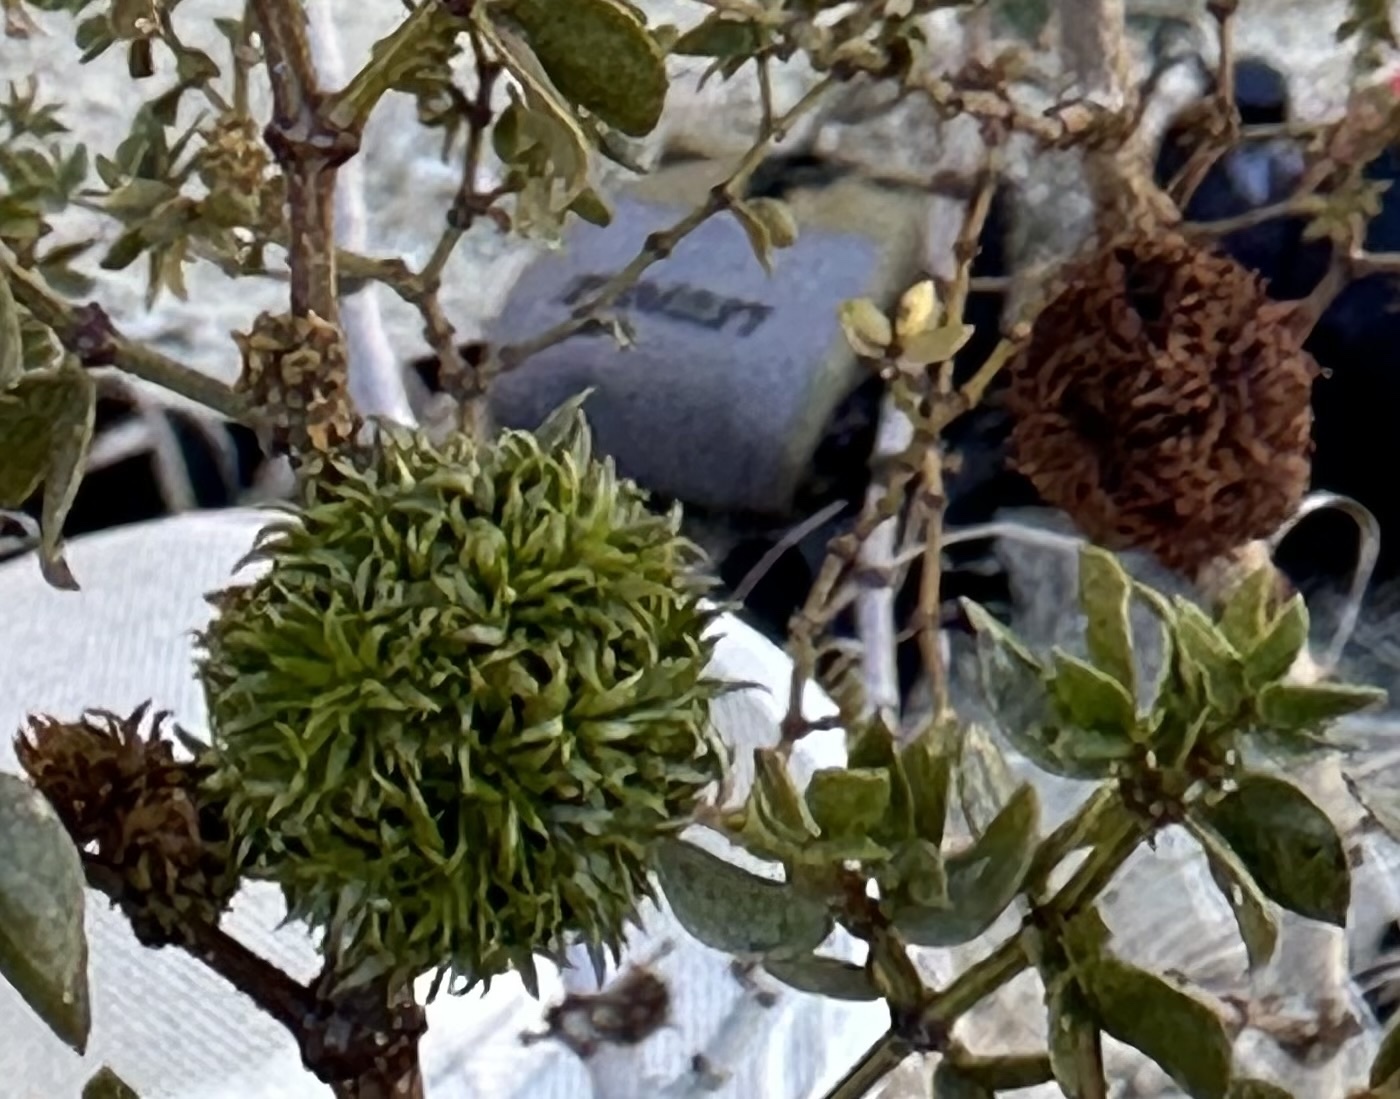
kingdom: Animalia
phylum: Arthropoda
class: Insecta
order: Diptera
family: Cecidomyiidae
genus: Asphondylia
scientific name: Asphondylia auripila
